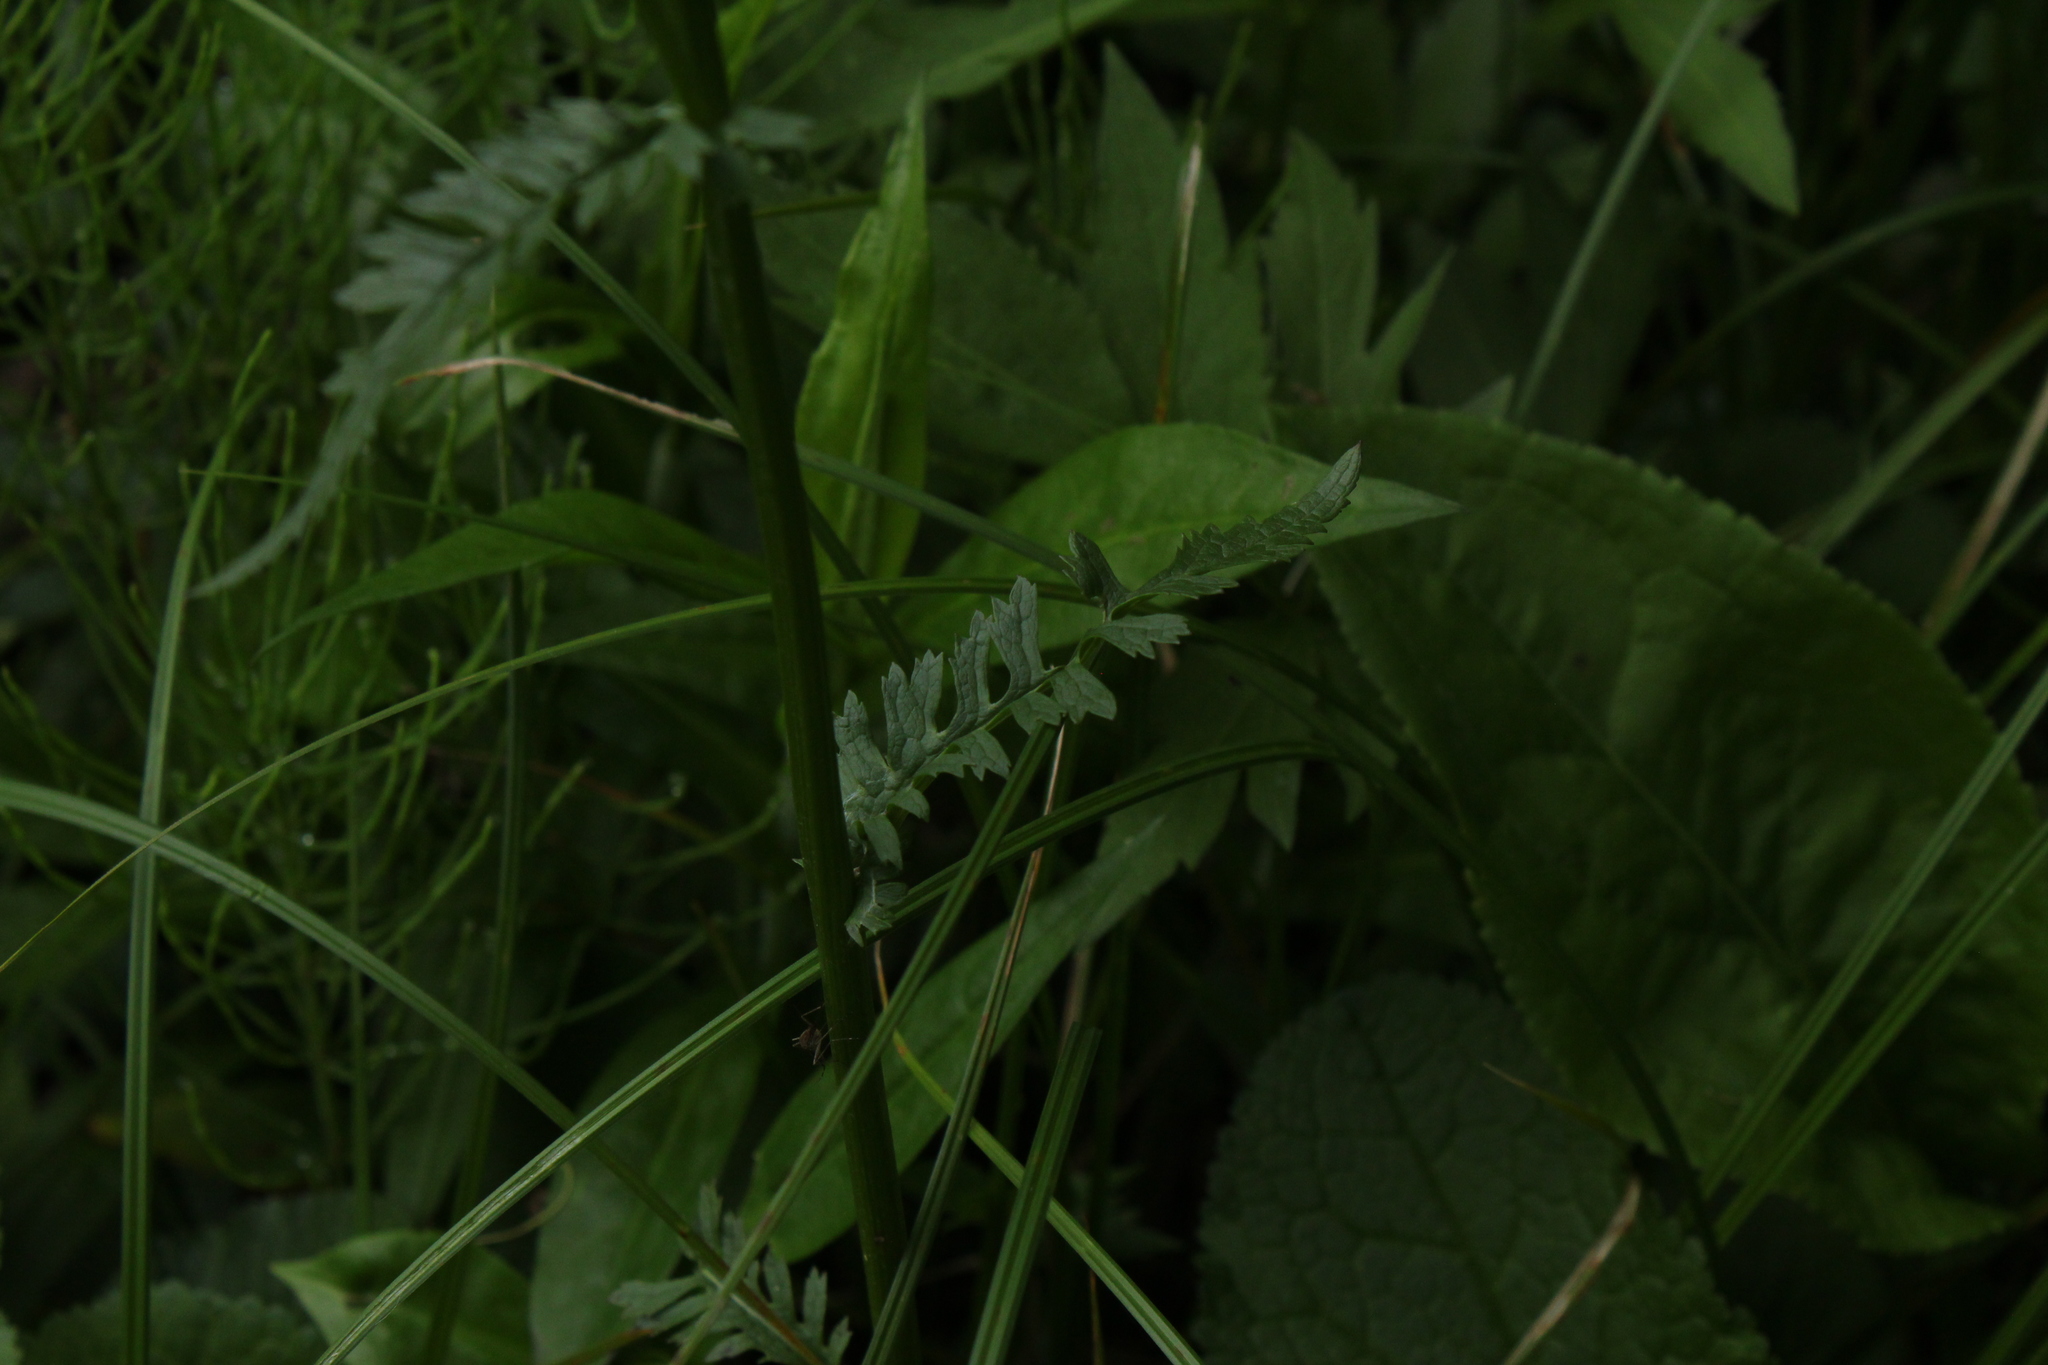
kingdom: Plantae
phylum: Tracheophyta
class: Magnoliopsida
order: Asterales
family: Asteraceae
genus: Packera
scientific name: Packera aurea
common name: Golden groundsel
